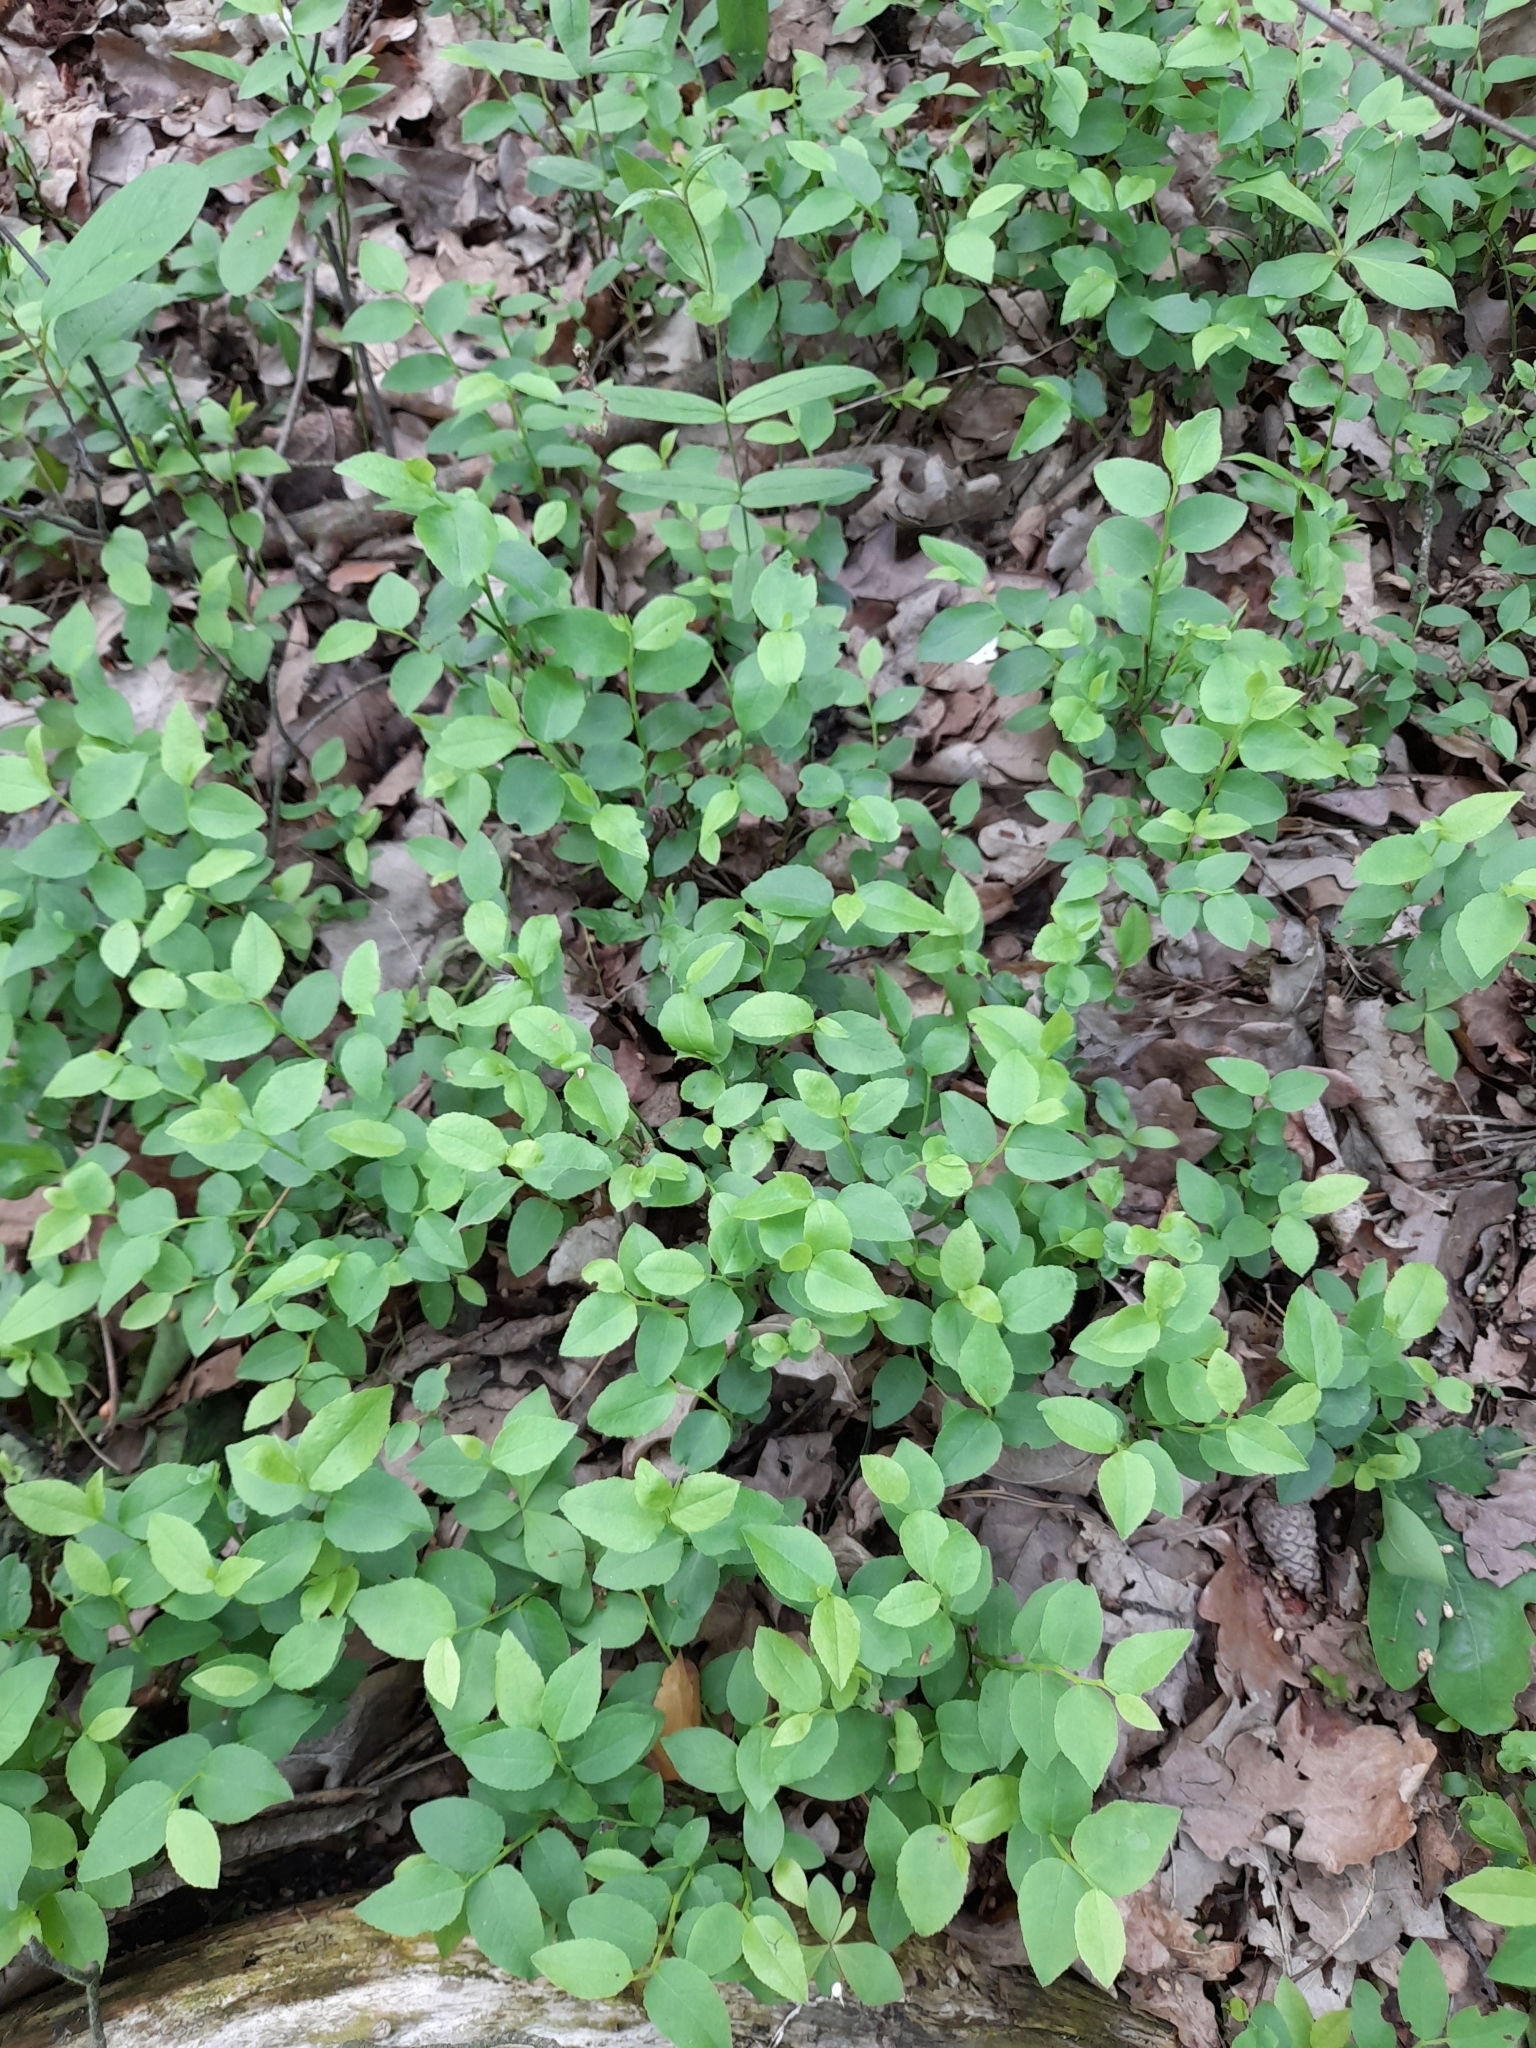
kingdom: Plantae
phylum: Tracheophyta
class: Magnoliopsida
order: Ericales
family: Ericaceae
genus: Vaccinium
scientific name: Vaccinium myrtillus
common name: Bilberry
